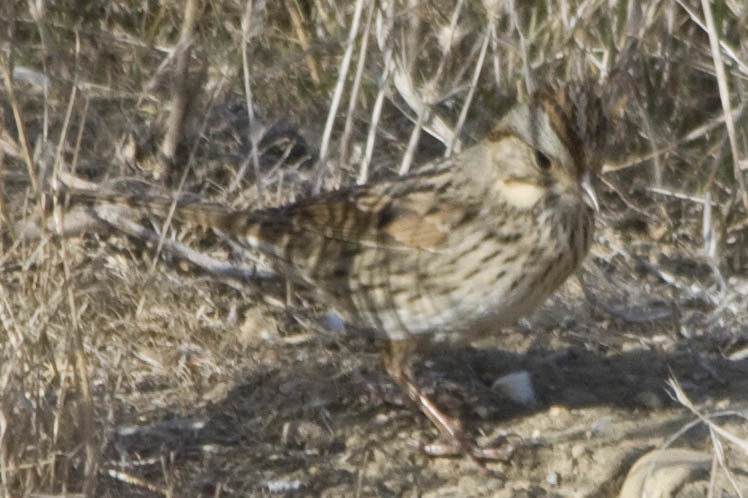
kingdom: Animalia
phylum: Chordata
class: Aves
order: Passeriformes
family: Passerellidae
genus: Melospiza
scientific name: Melospiza lincolnii
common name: Lincoln's sparrow
